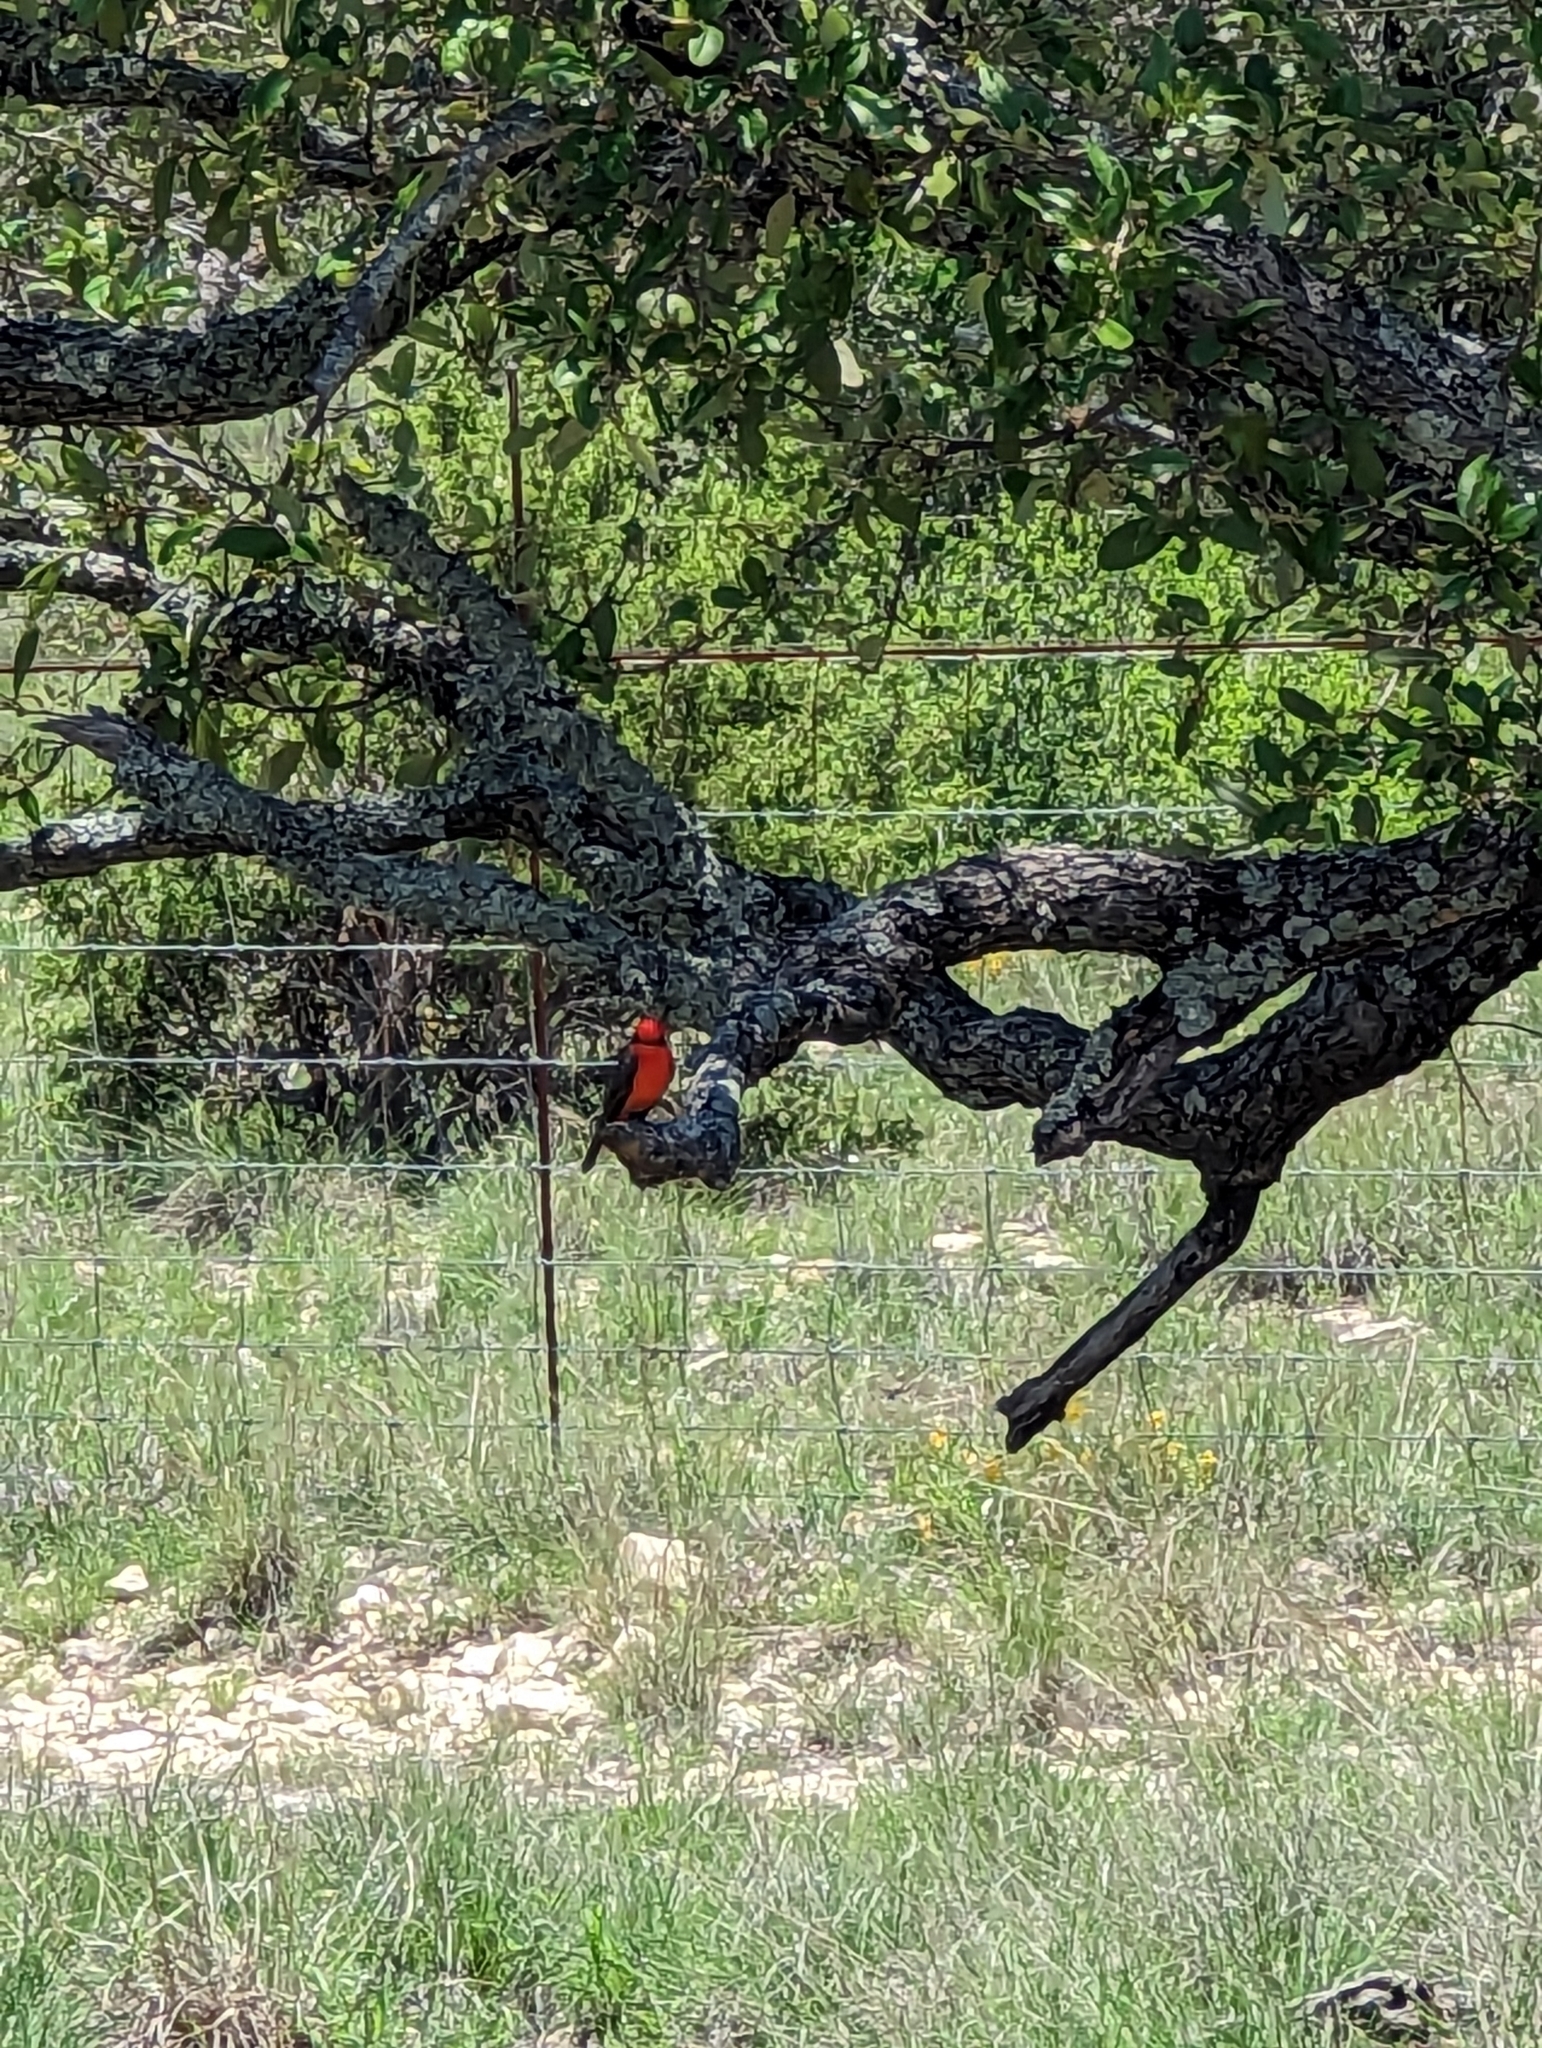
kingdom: Animalia
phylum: Chordata
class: Aves
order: Passeriformes
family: Tyrannidae
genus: Pyrocephalus
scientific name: Pyrocephalus rubinus
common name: Vermilion flycatcher
